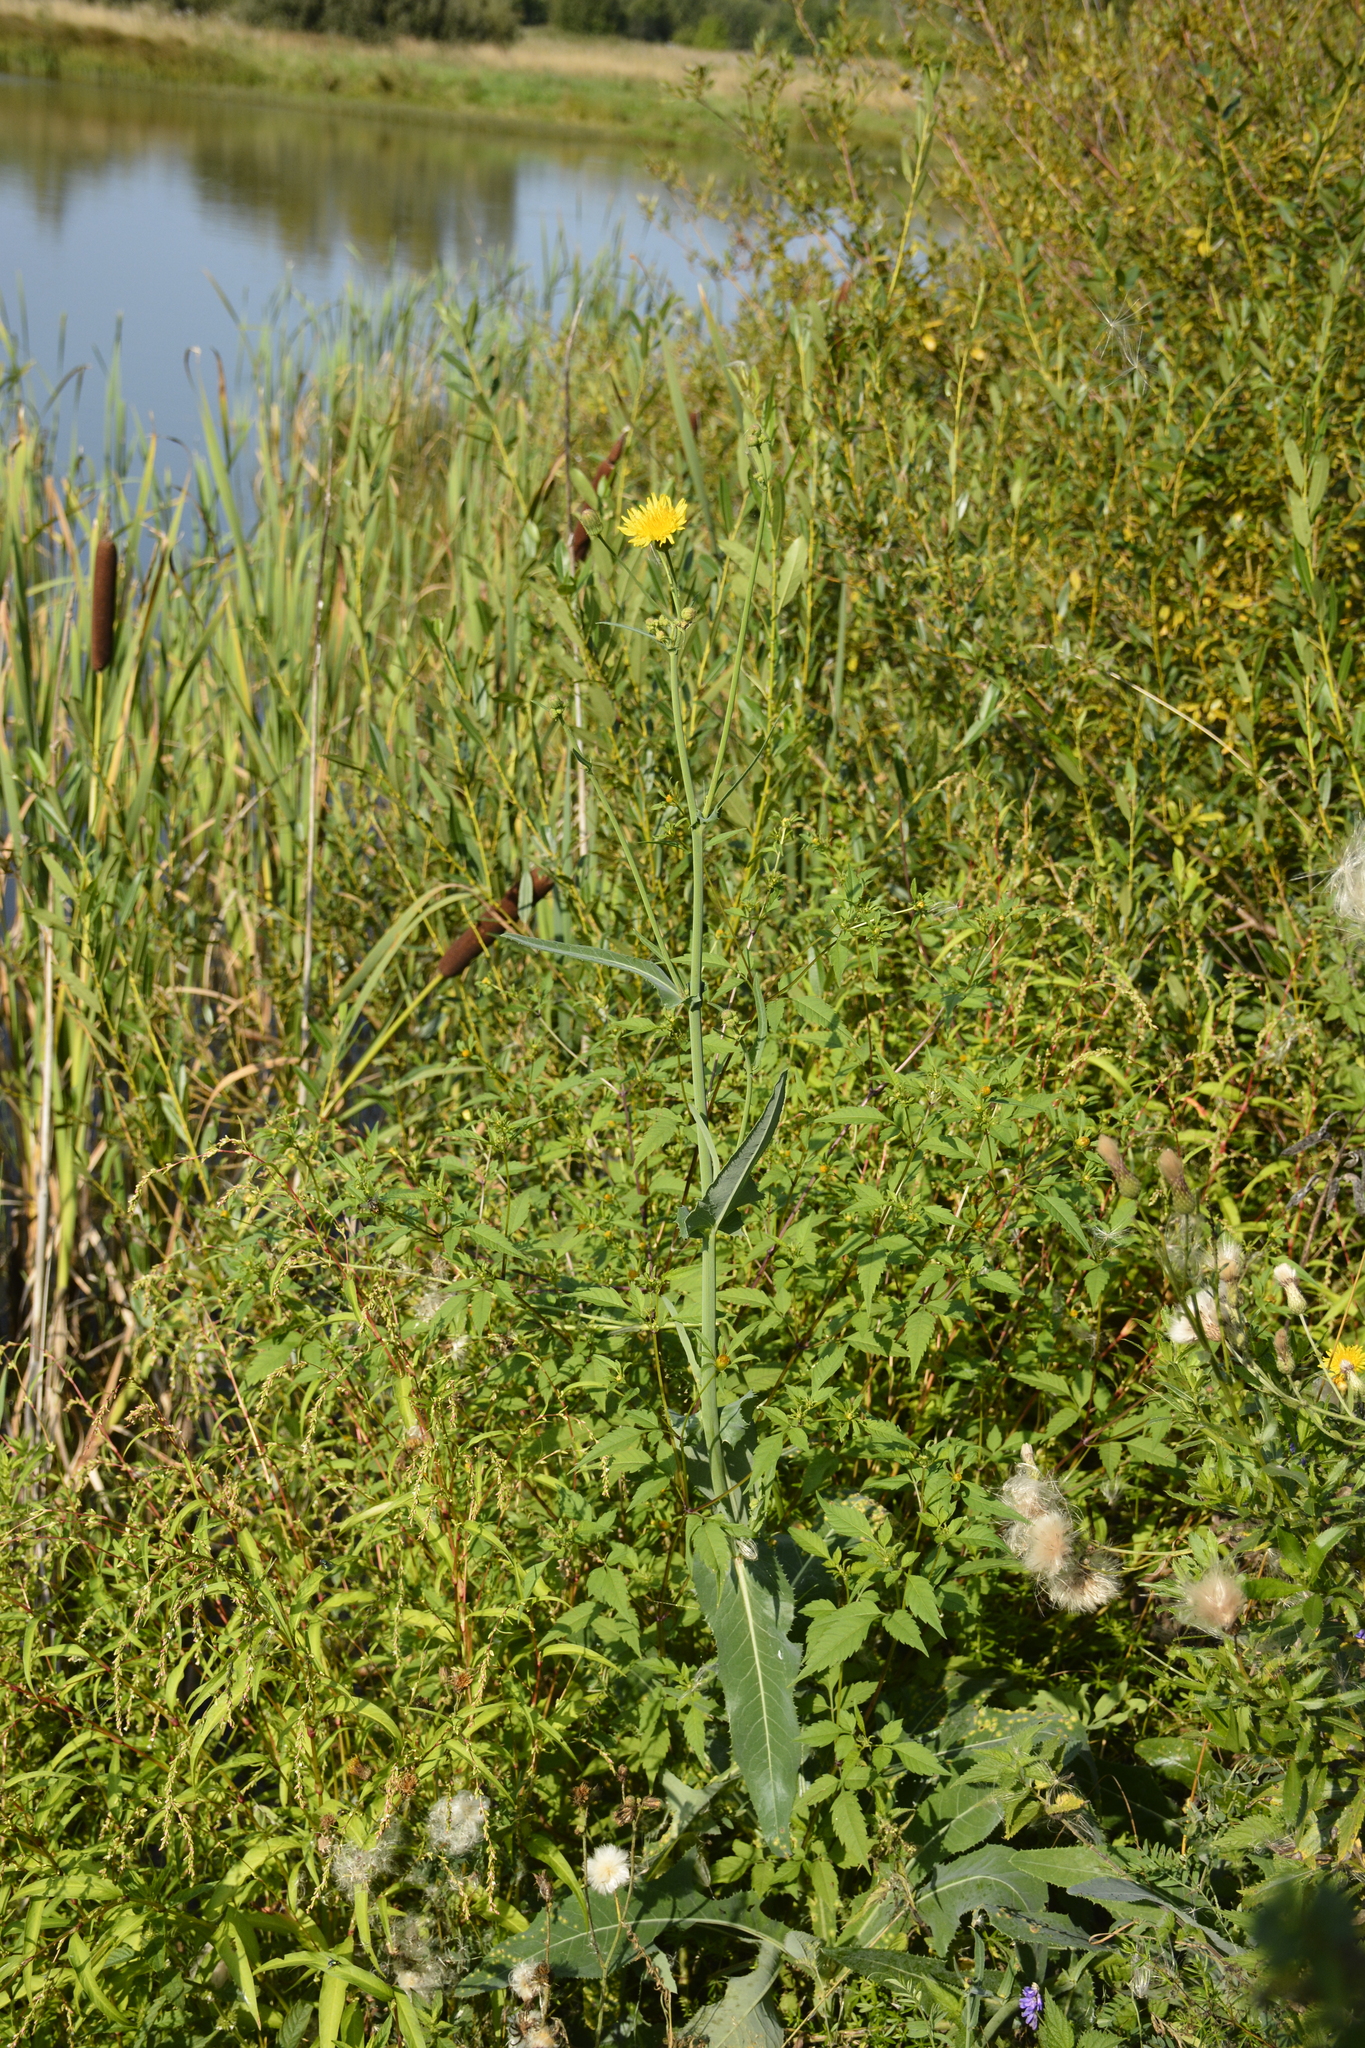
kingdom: Plantae
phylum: Tracheophyta
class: Magnoliopsida
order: Asterales
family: Asteraceae
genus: Sonchus
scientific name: Sonchus arvensis
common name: Perennial sow-thistle
